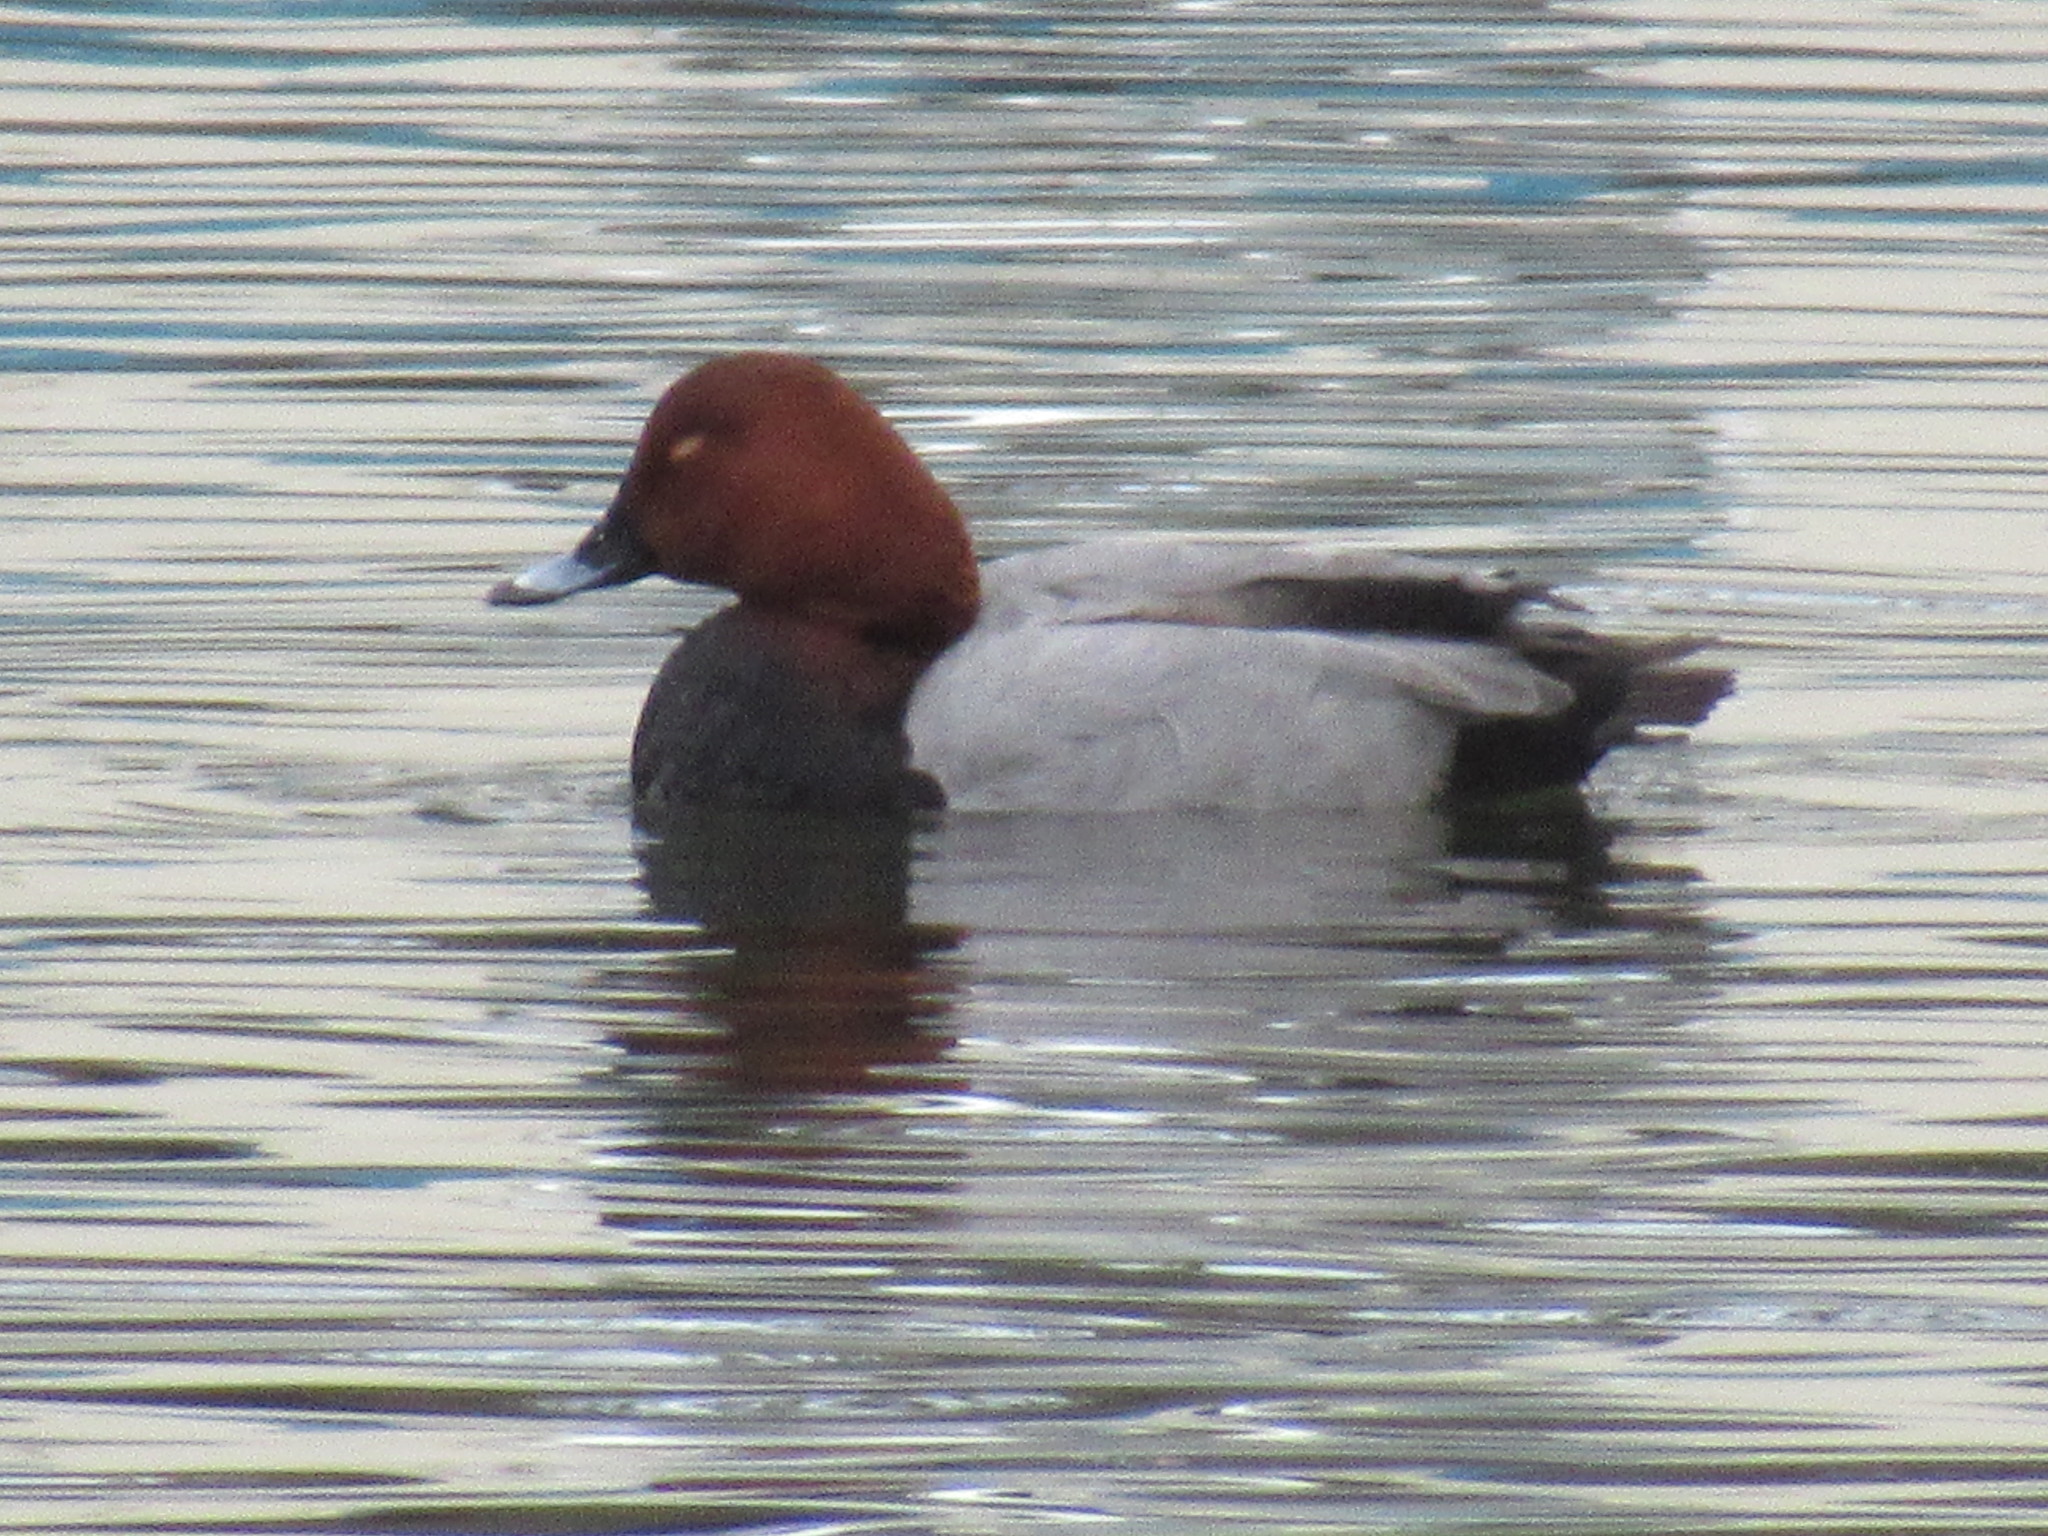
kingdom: Animalia
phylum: Chordata
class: Aves
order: Anseriformes
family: Anatidae
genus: Aythya
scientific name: Aythya ferina
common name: Common pochard
